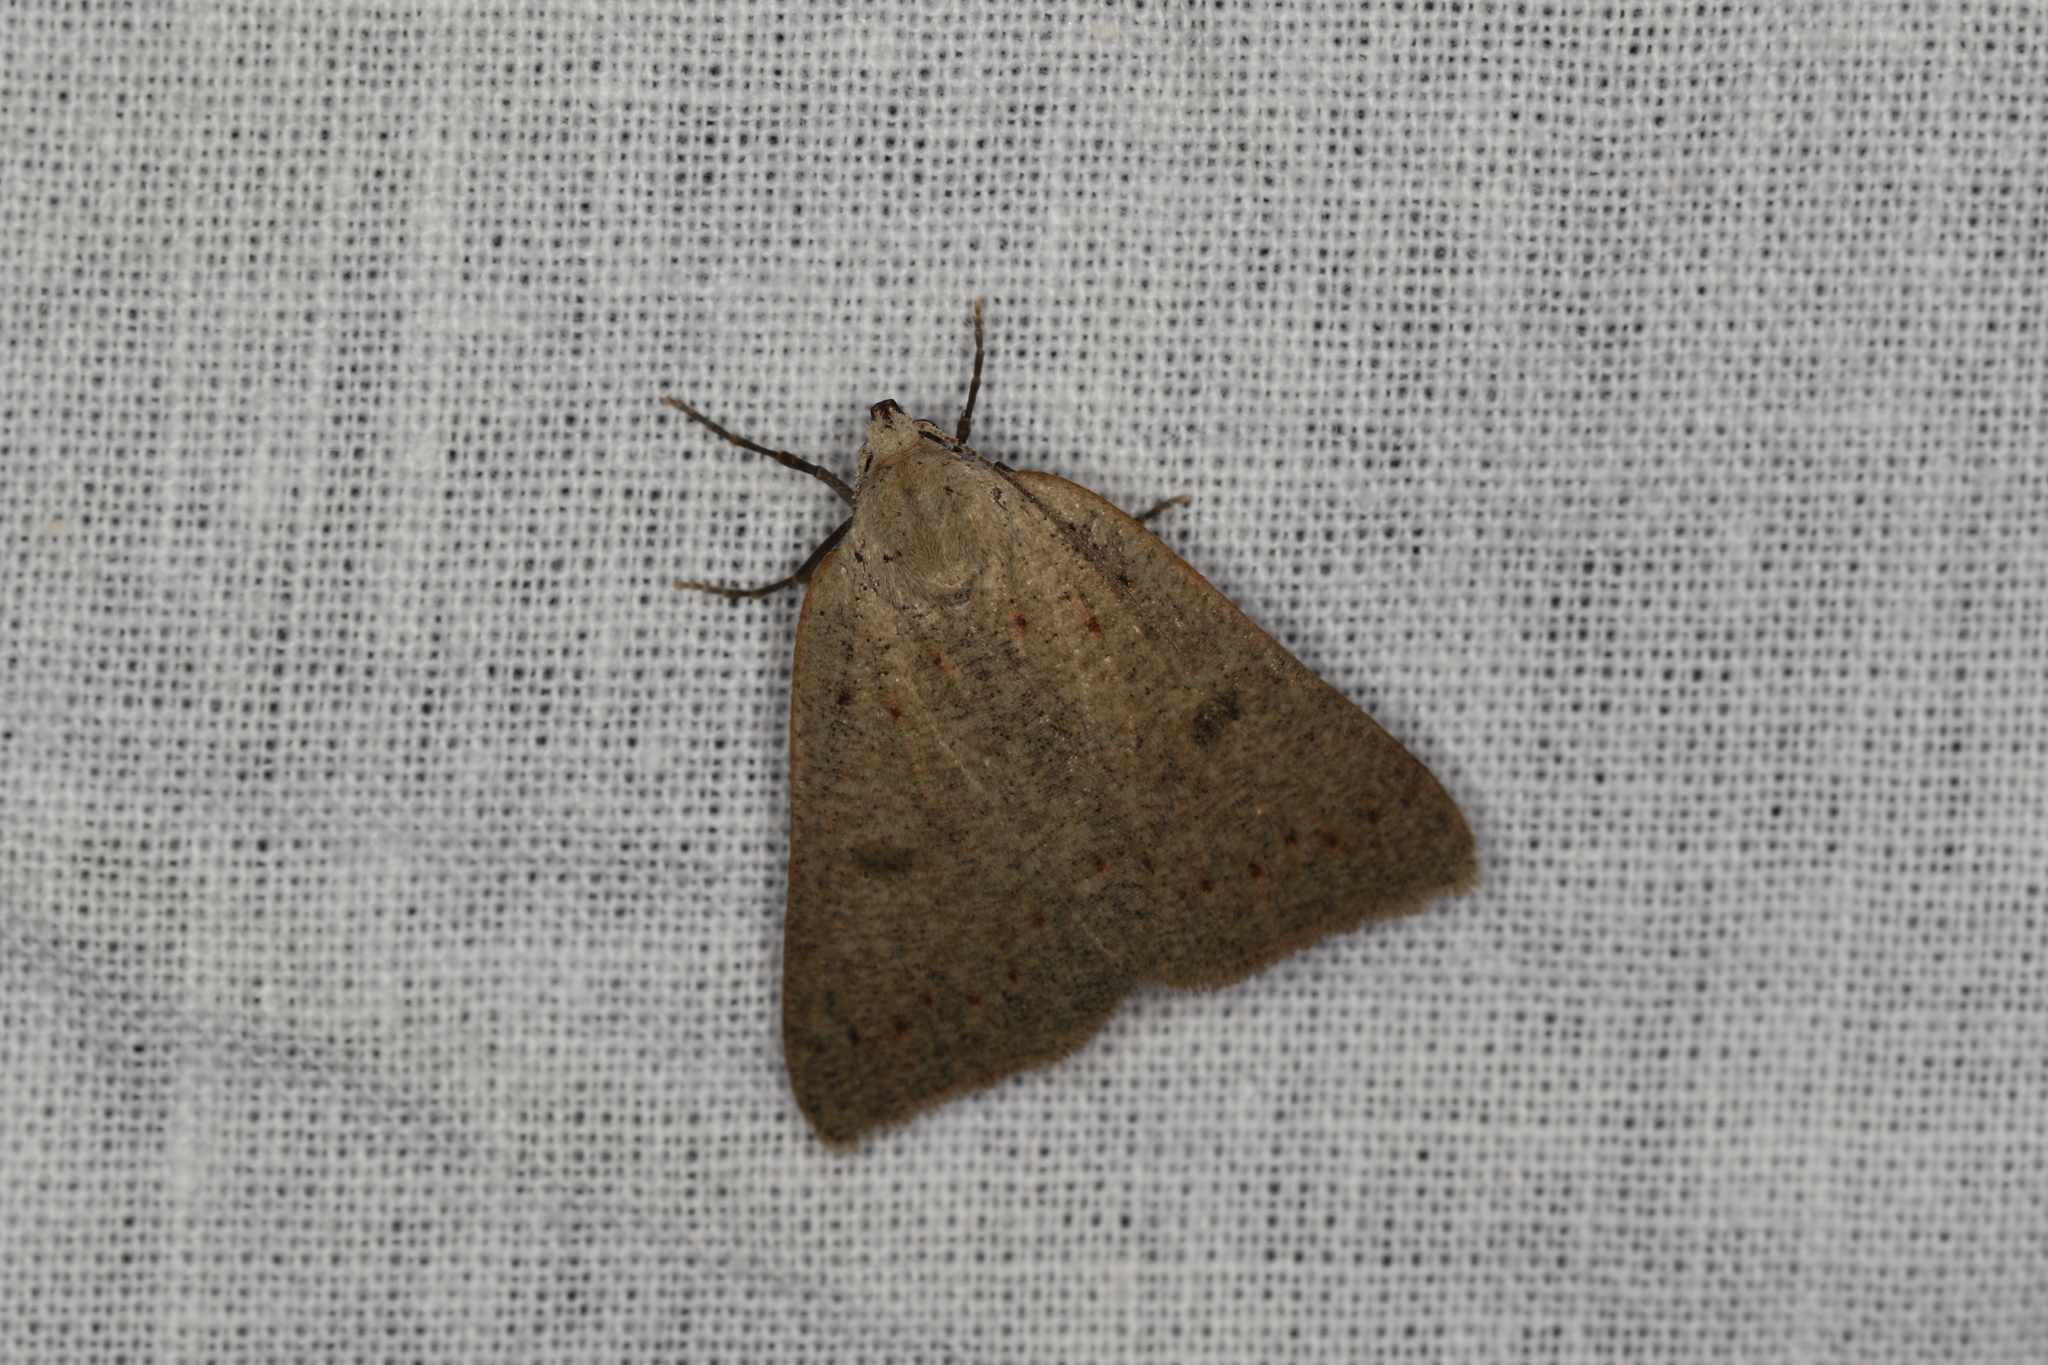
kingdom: Animalia
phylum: Arthropoda
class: Insecta
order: Lepidoptera
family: Geometridae
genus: Loweria
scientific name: Loweria capnosticta
